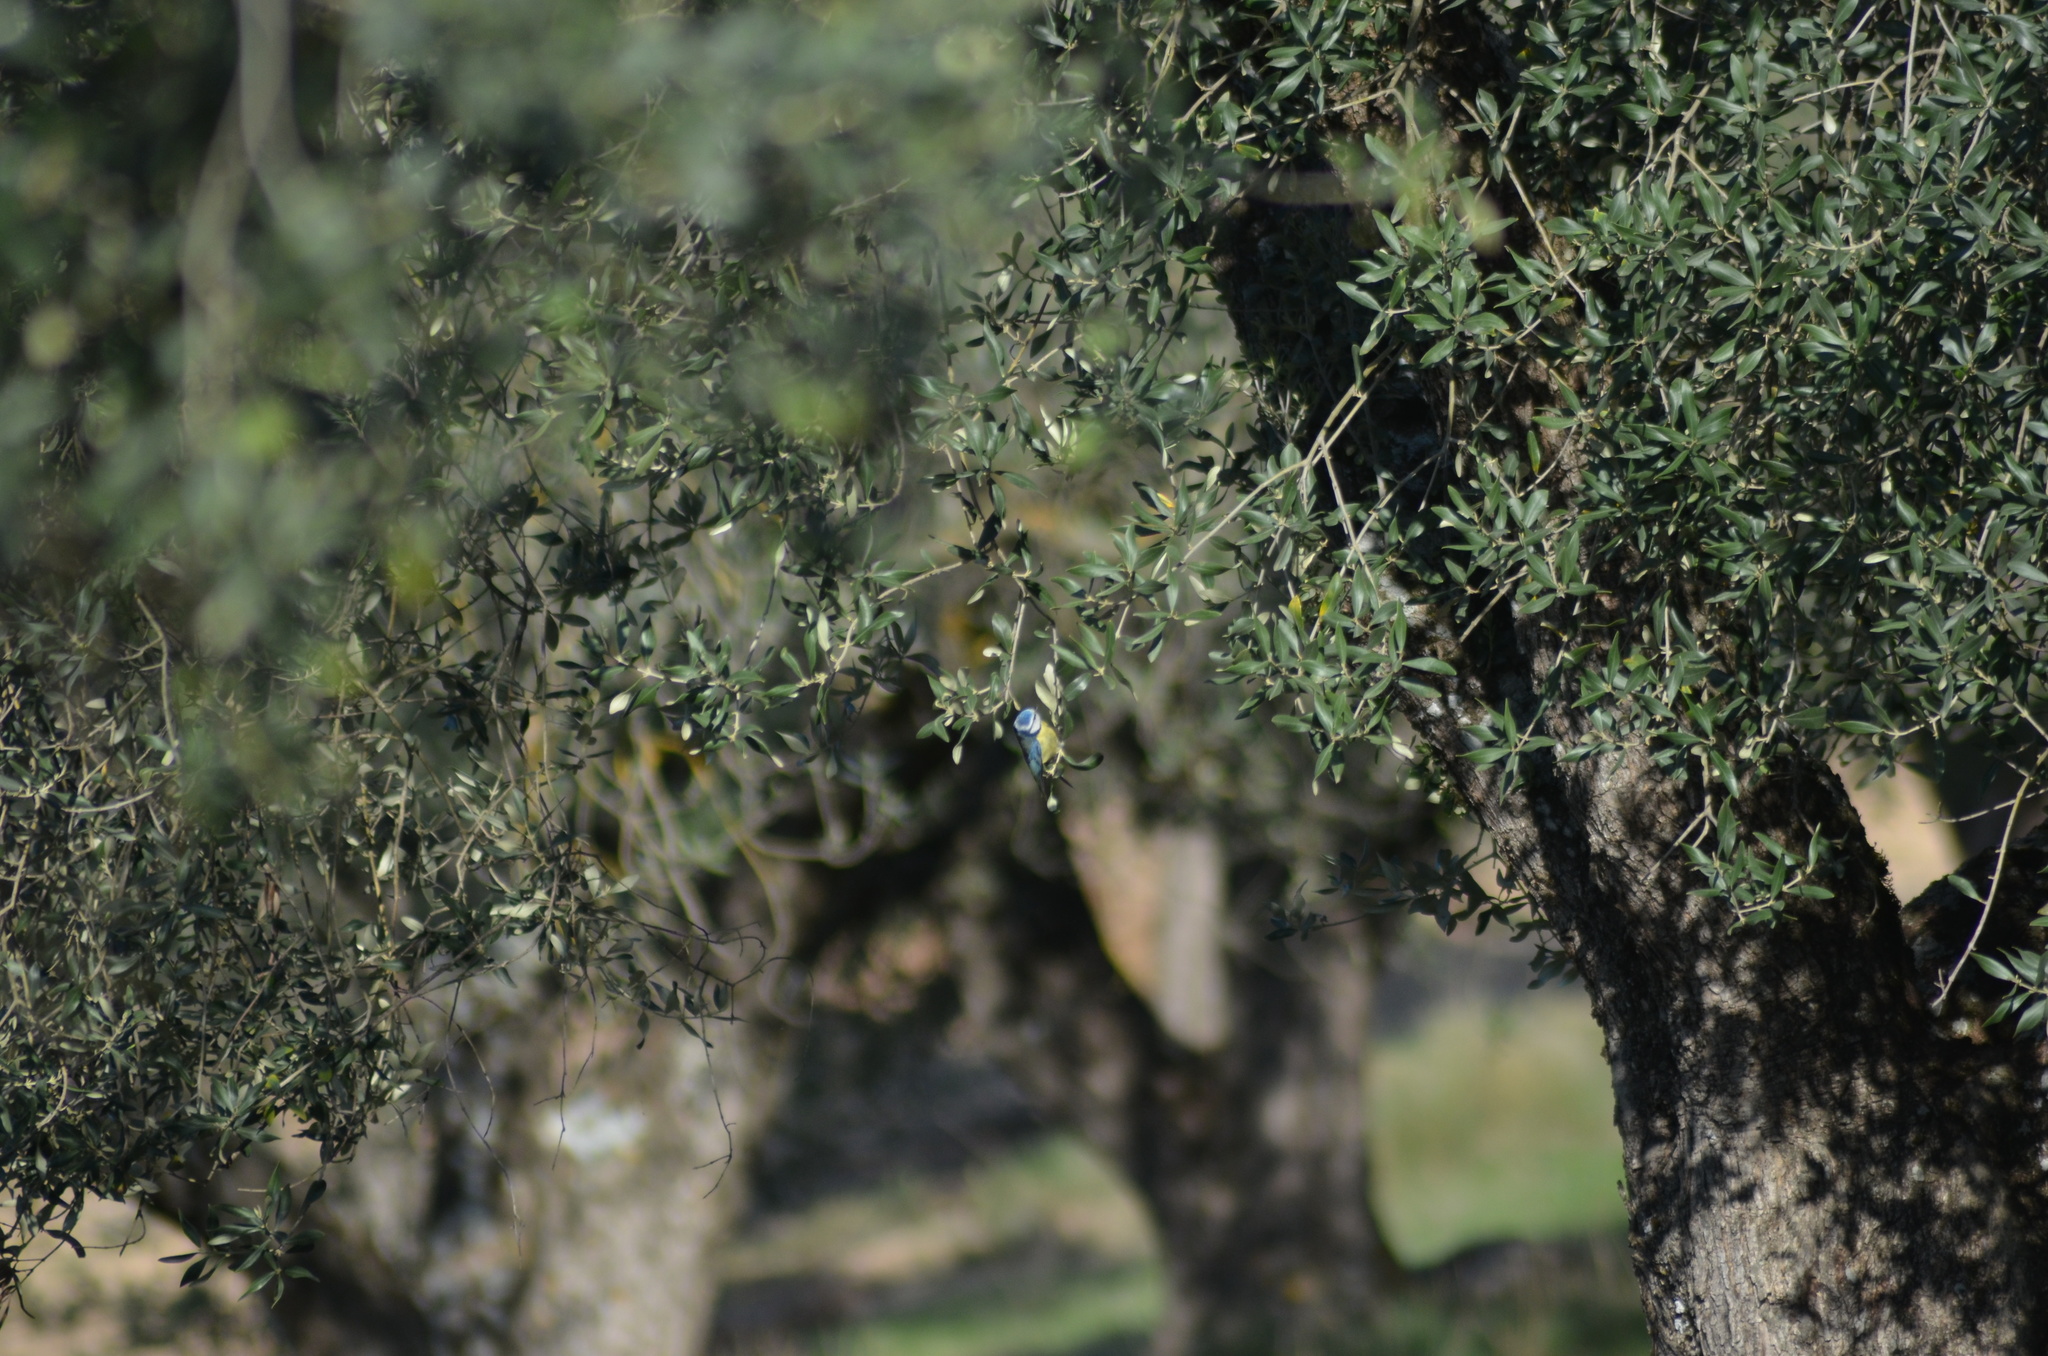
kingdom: Animalia
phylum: Chordata
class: Aves
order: Passeriformes
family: Paridae
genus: Cyanistes
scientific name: Cyanistes caeruleus
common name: Eurasian blue tit
